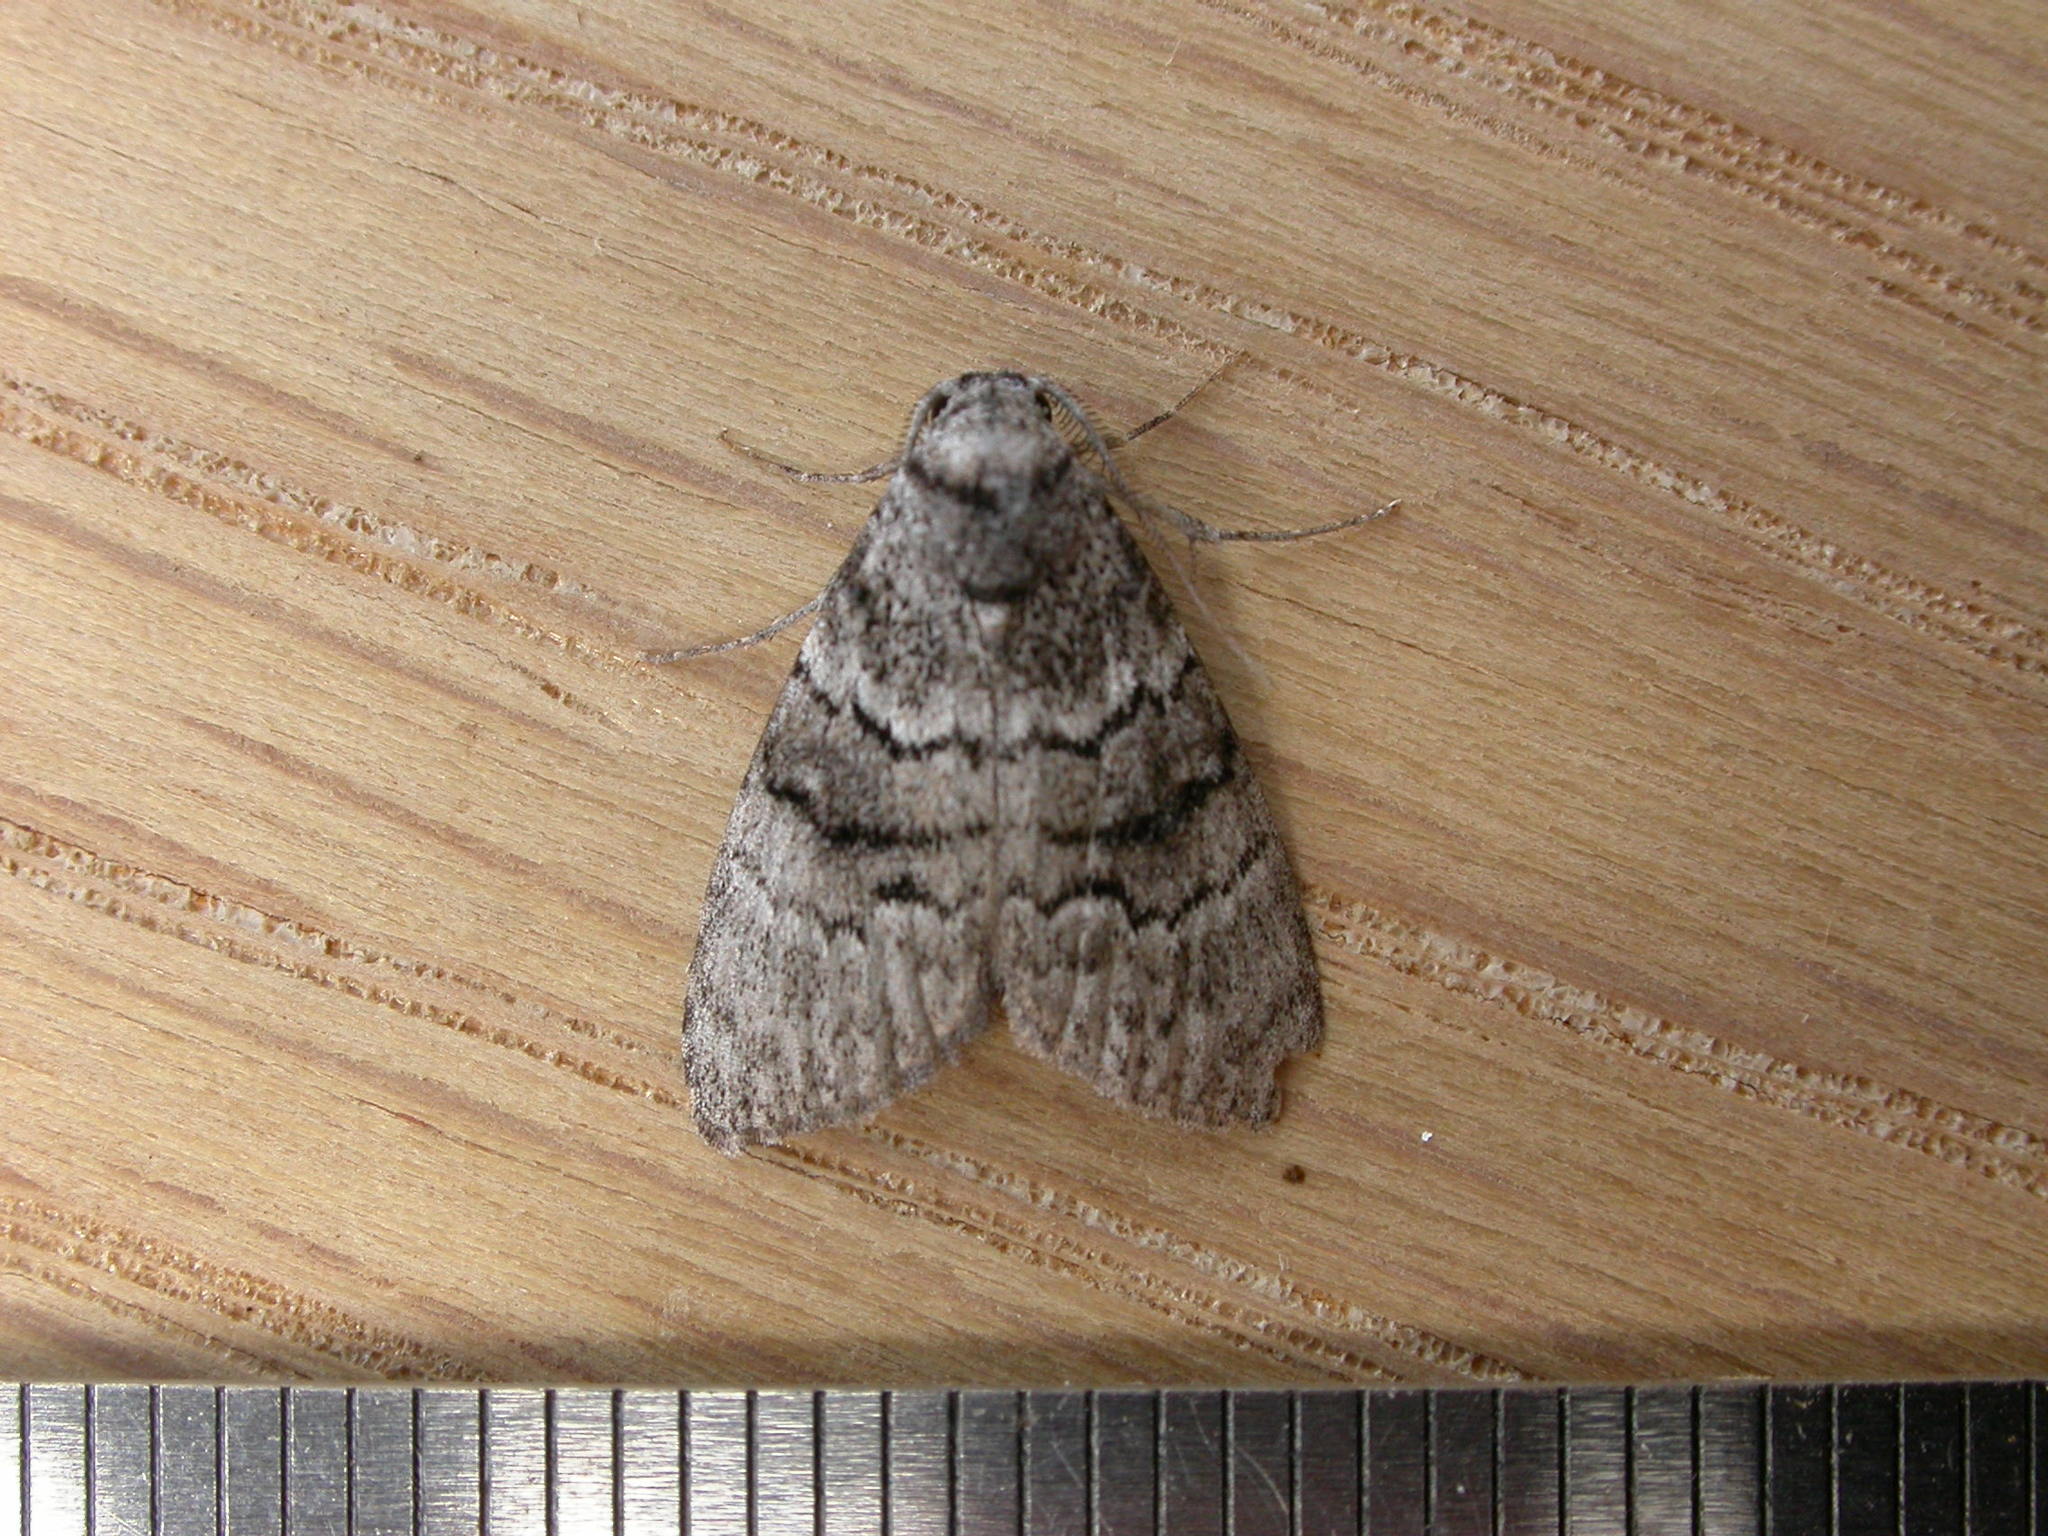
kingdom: Animalia
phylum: Arthropoda
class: Insecta
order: Lepidoptera
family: Nolidae
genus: Uraba
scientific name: Uraba lugens
